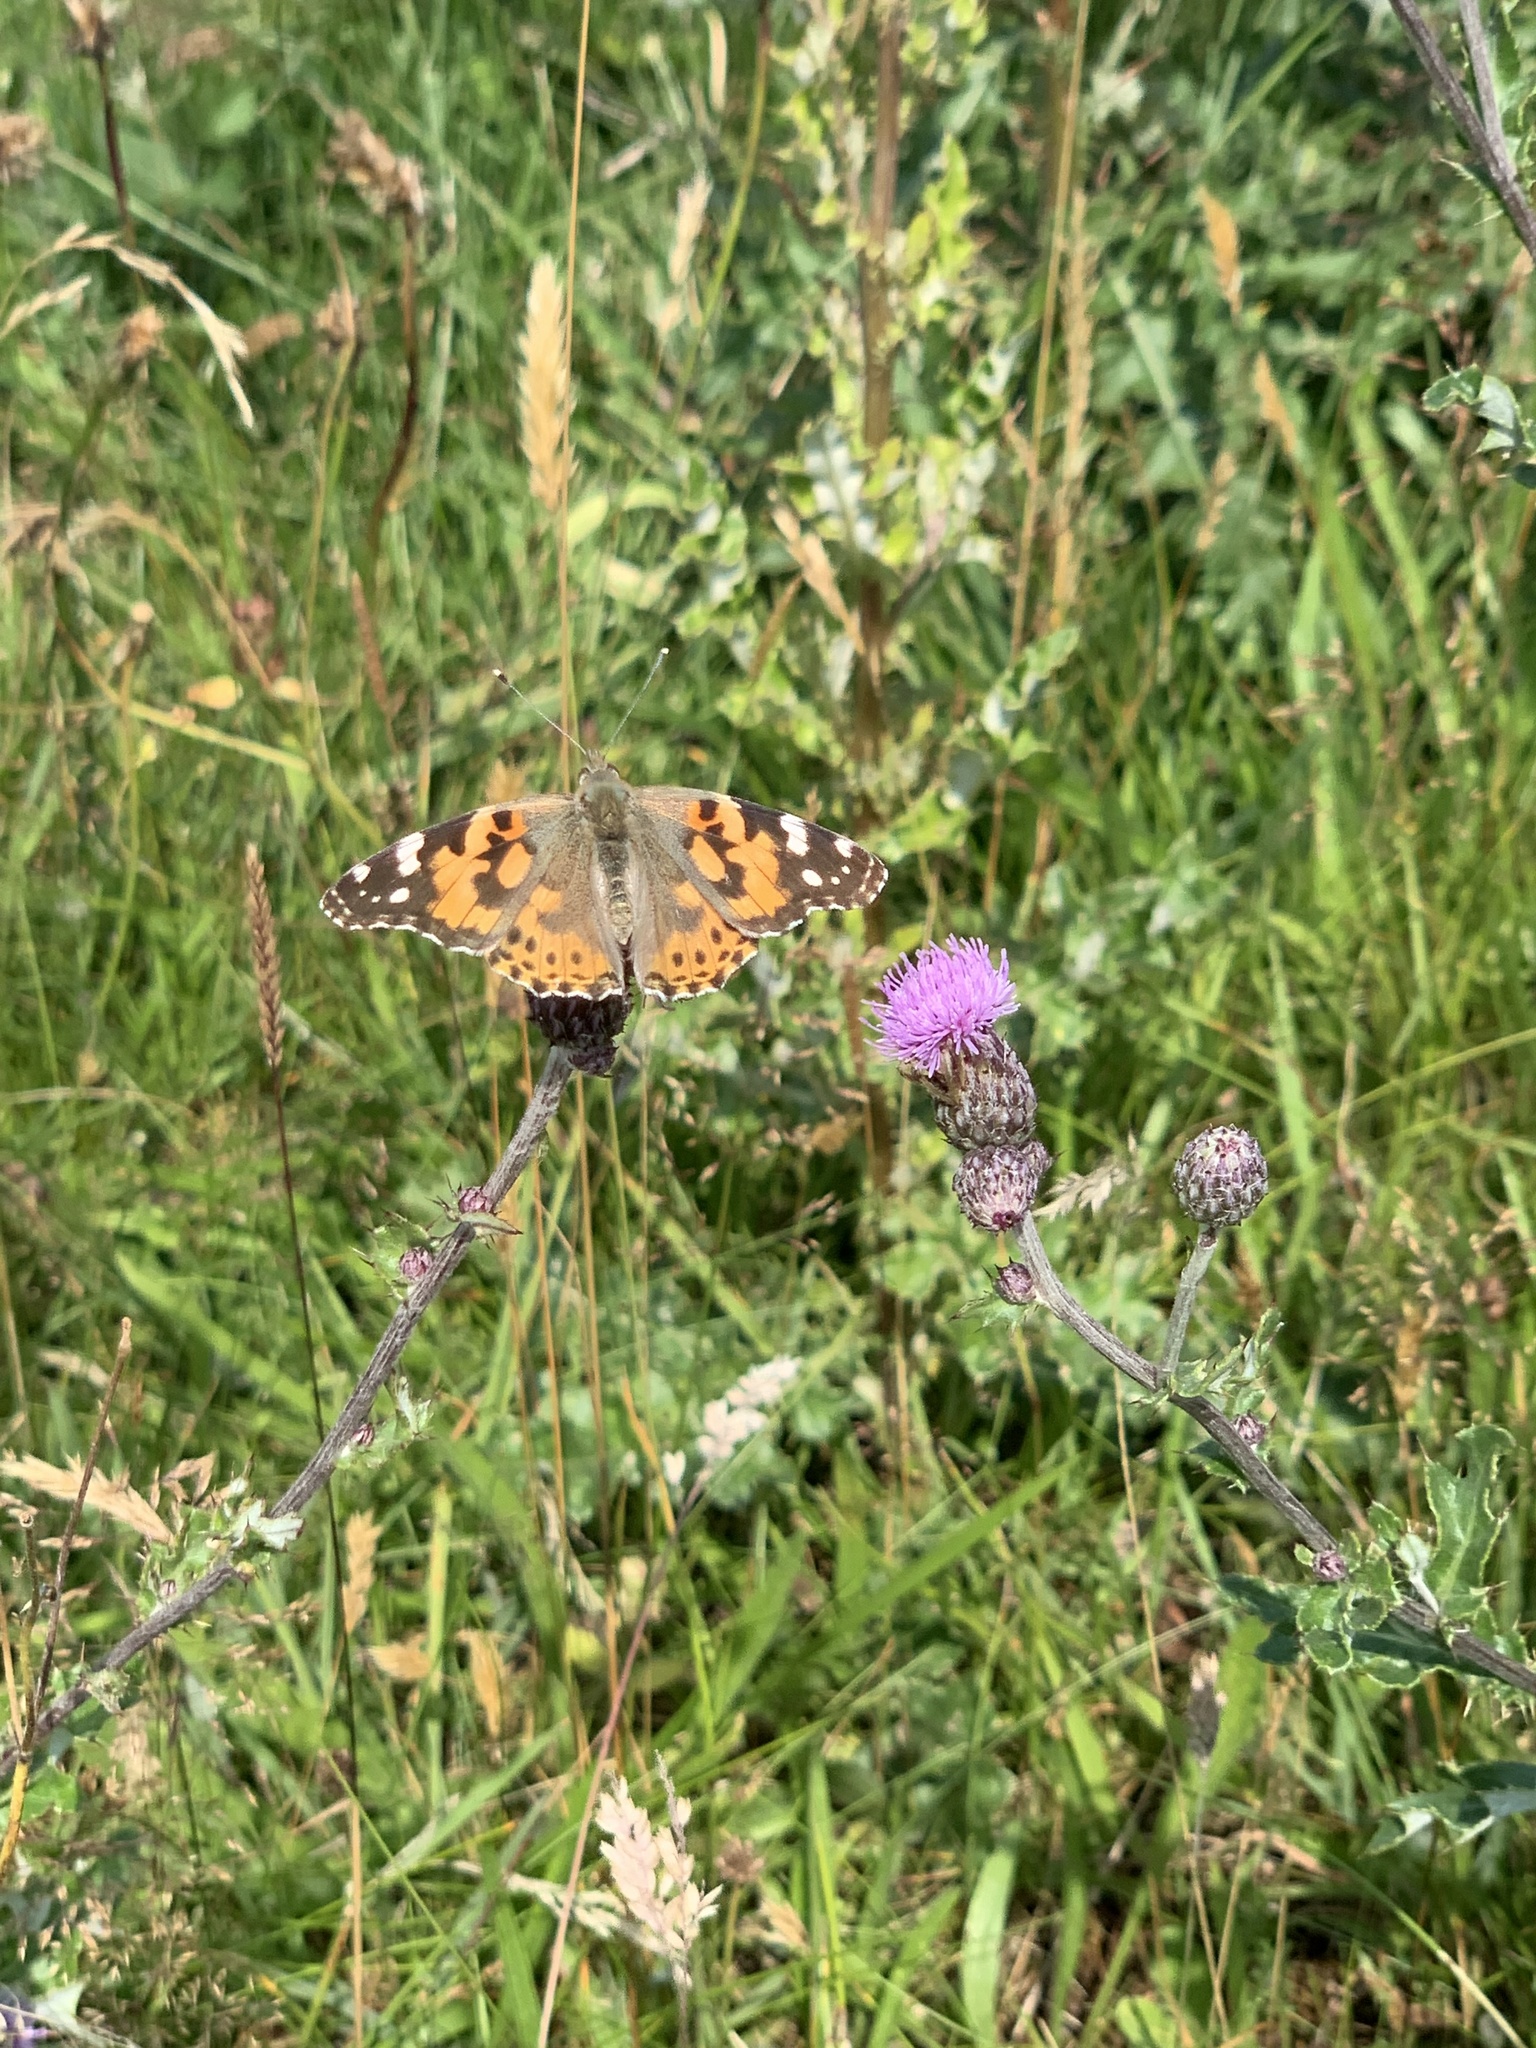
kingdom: Animalia
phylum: Arthropoda
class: Insecta
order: Lepidoptera
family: Nymphalidae
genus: Vanessa
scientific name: Vanessa cardui
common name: Painted lady
